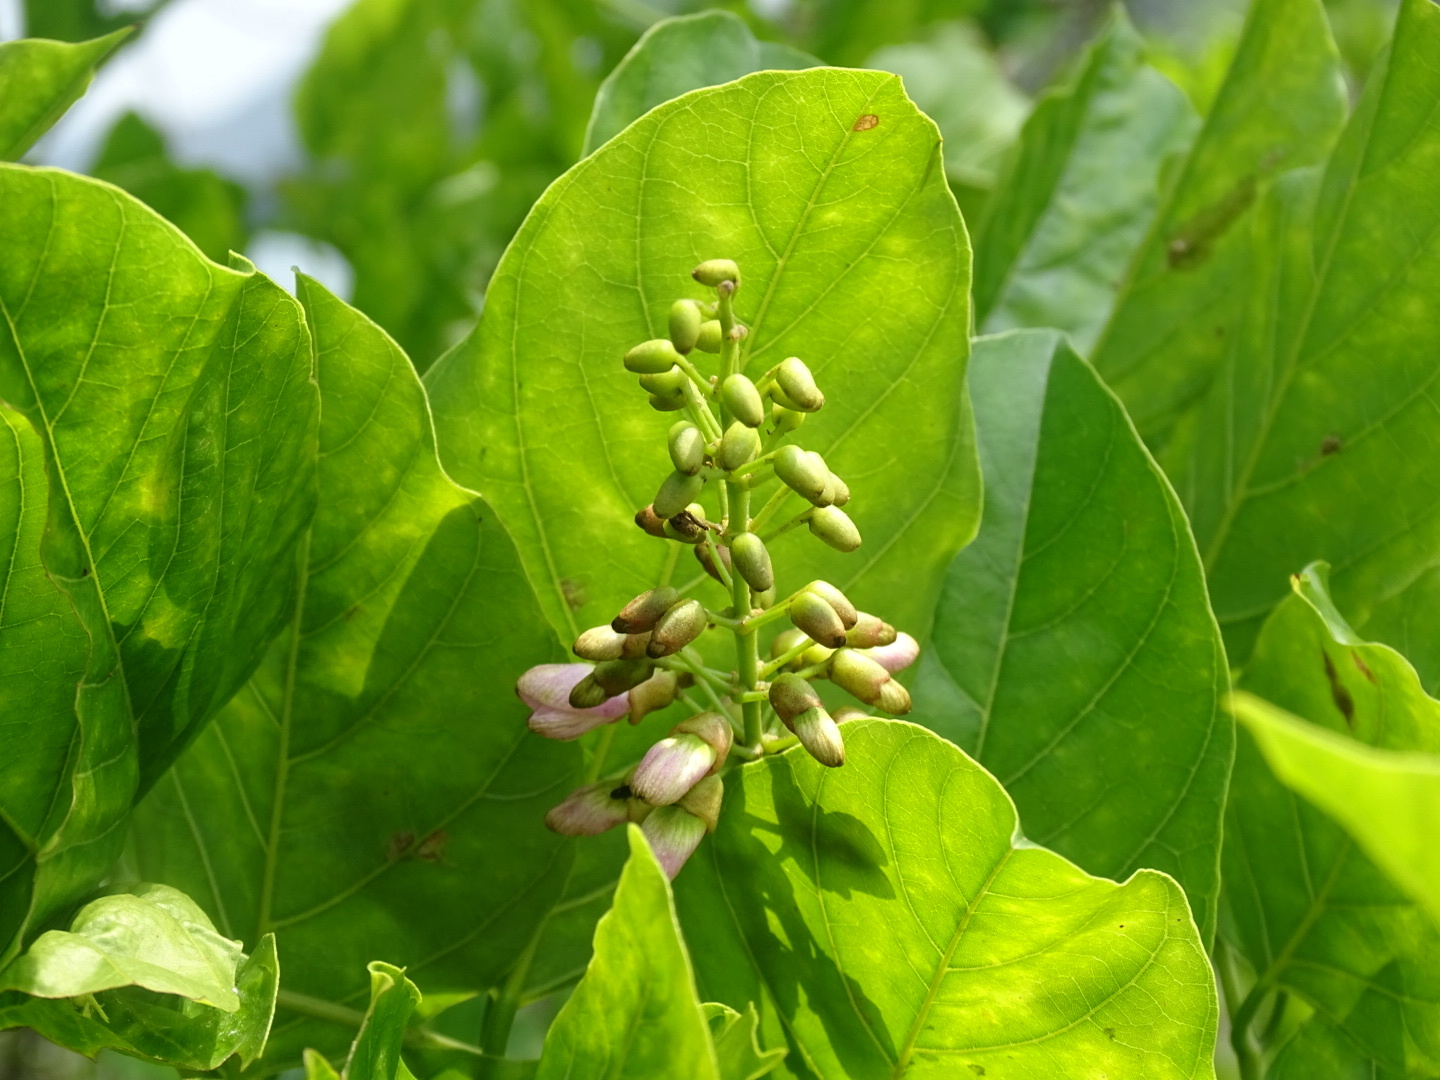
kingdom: Plantae
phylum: Tracheophyta
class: Magnoliopsida
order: Fabales
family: Fabaceae
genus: Pongamia
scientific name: Pongamia pinnata
